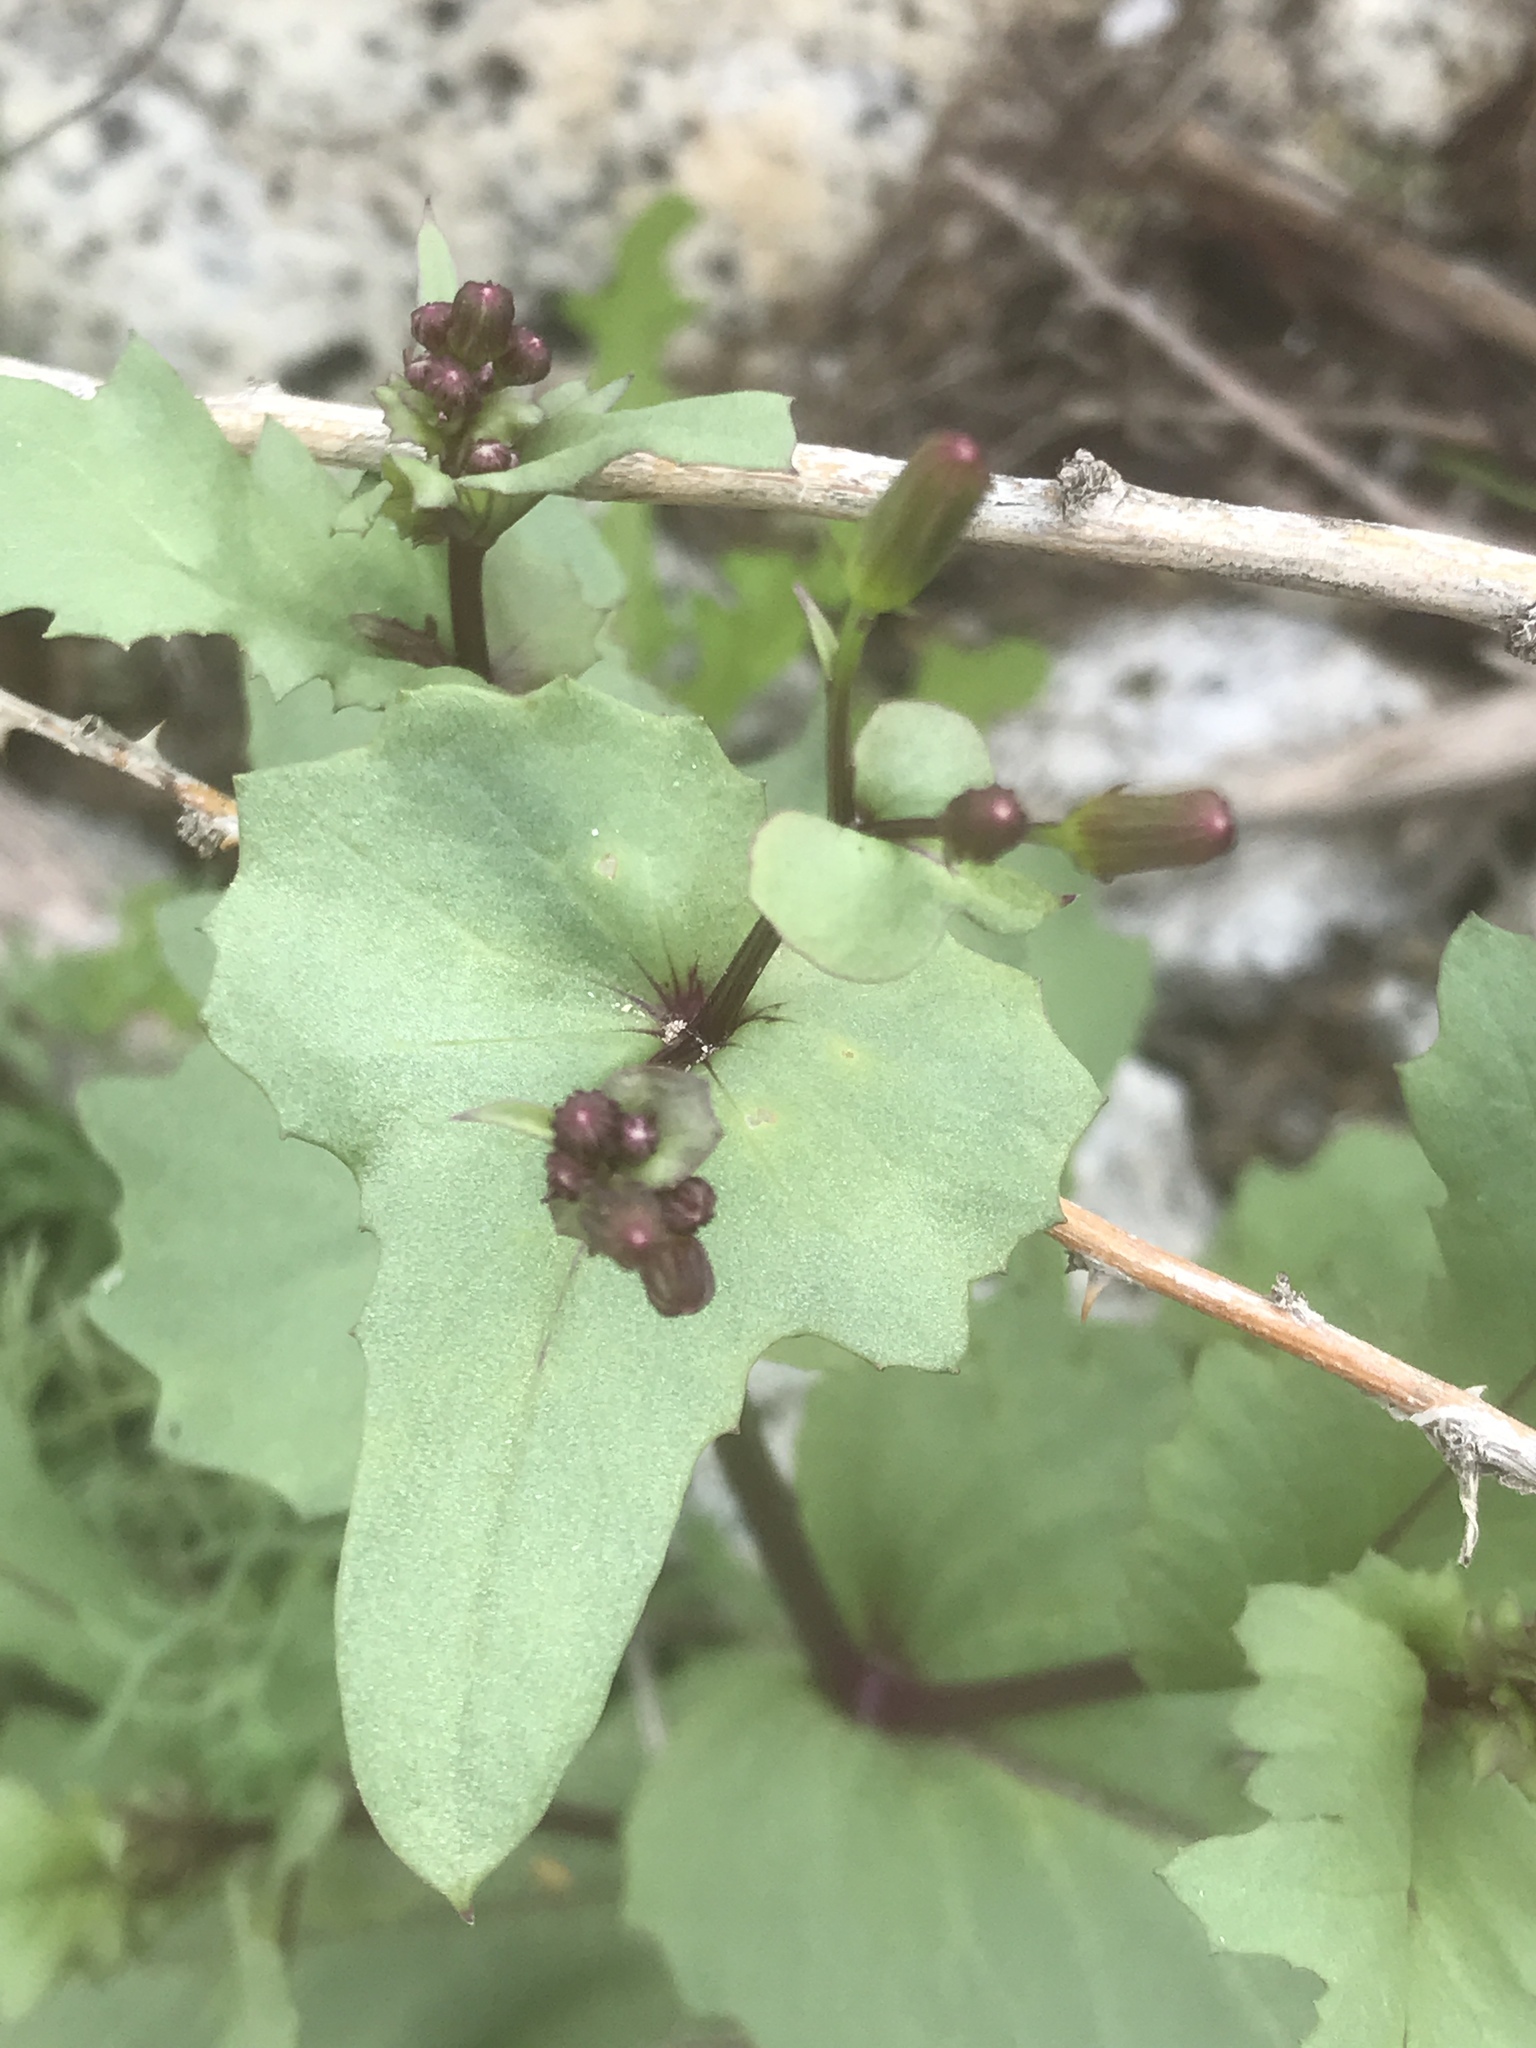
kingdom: Plantae
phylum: Tracheophyta
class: Magnoliopsida
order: Asterales
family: Asteraceae
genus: Senecio
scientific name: Senecio mohavensis
